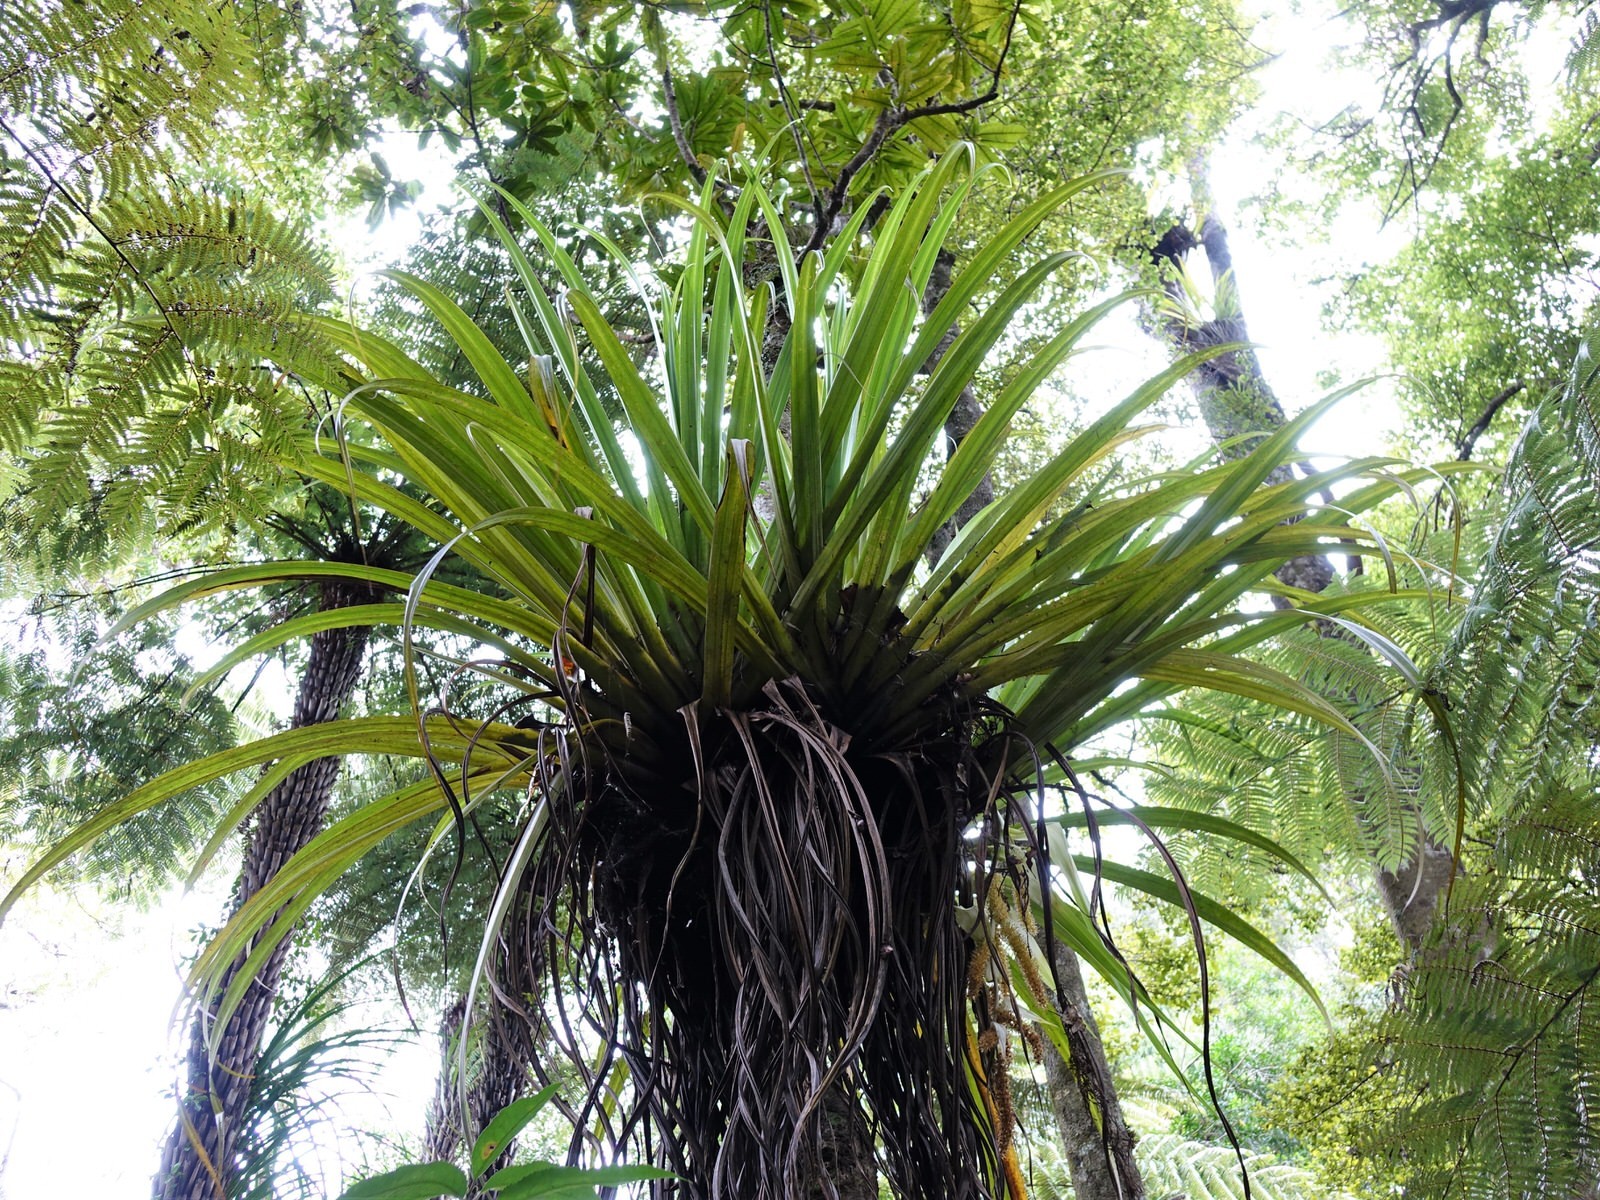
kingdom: Plantae
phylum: Tracheophyta
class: Liliopsida
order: Asparagales
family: Asteliaceae
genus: Astelia
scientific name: Astelia hastata
